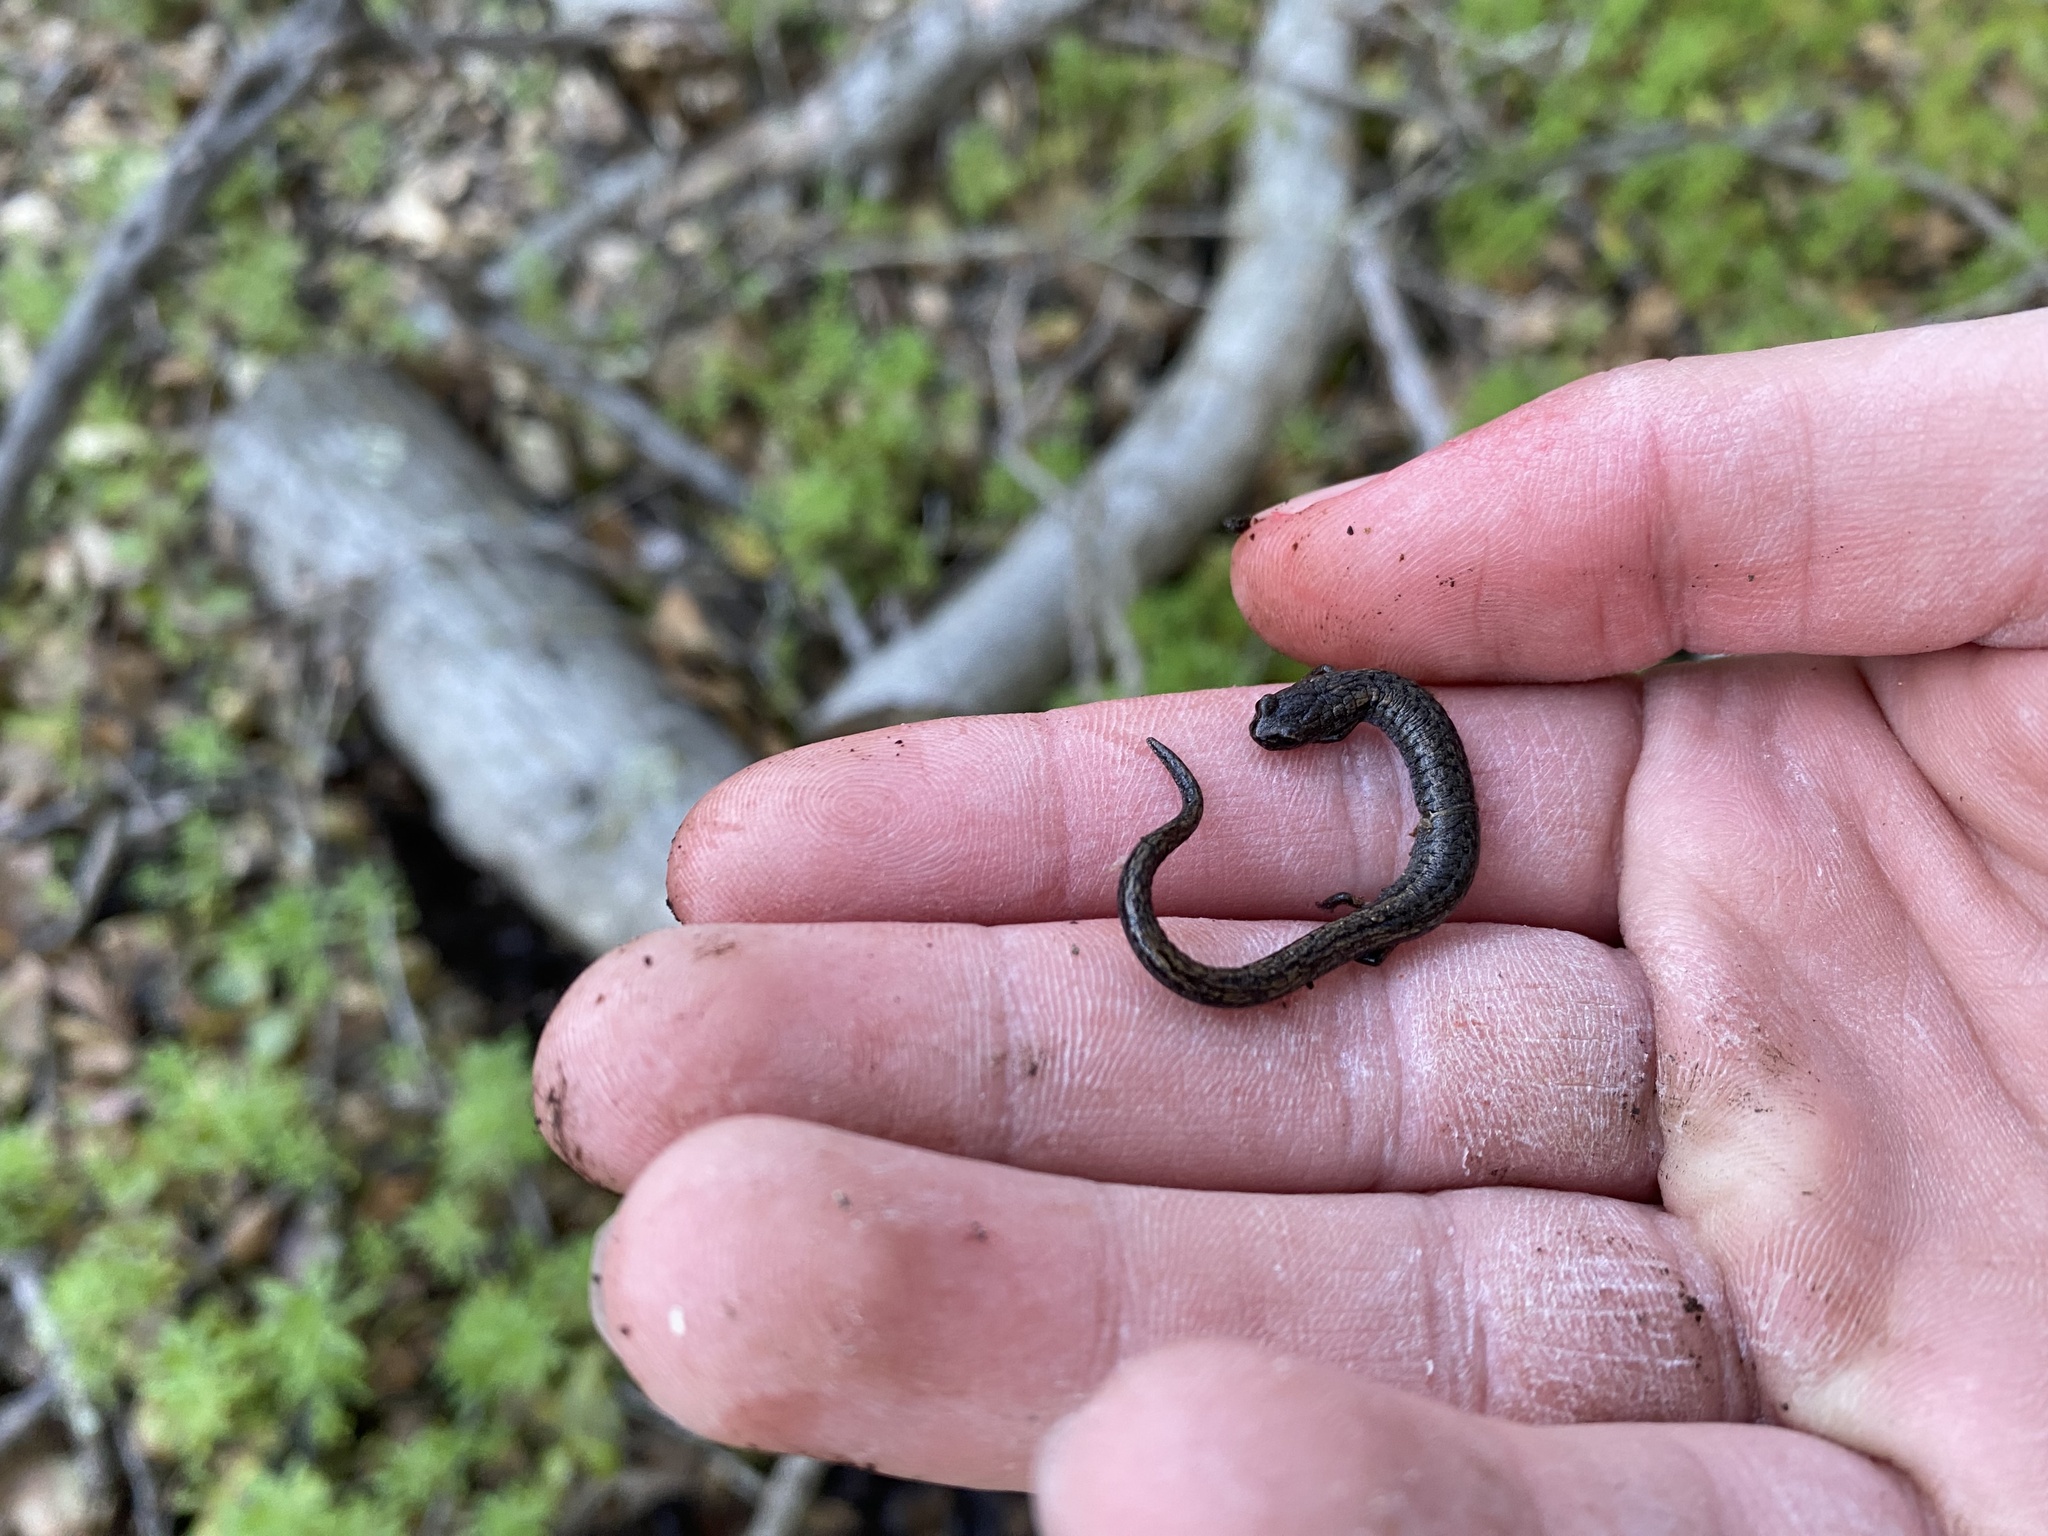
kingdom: Animalia
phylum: Chordata
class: Amphibia
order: Caudata
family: Plethodontidae
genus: Batrachoseps
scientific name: Batrachoseps attenuatus
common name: California slender salamander
